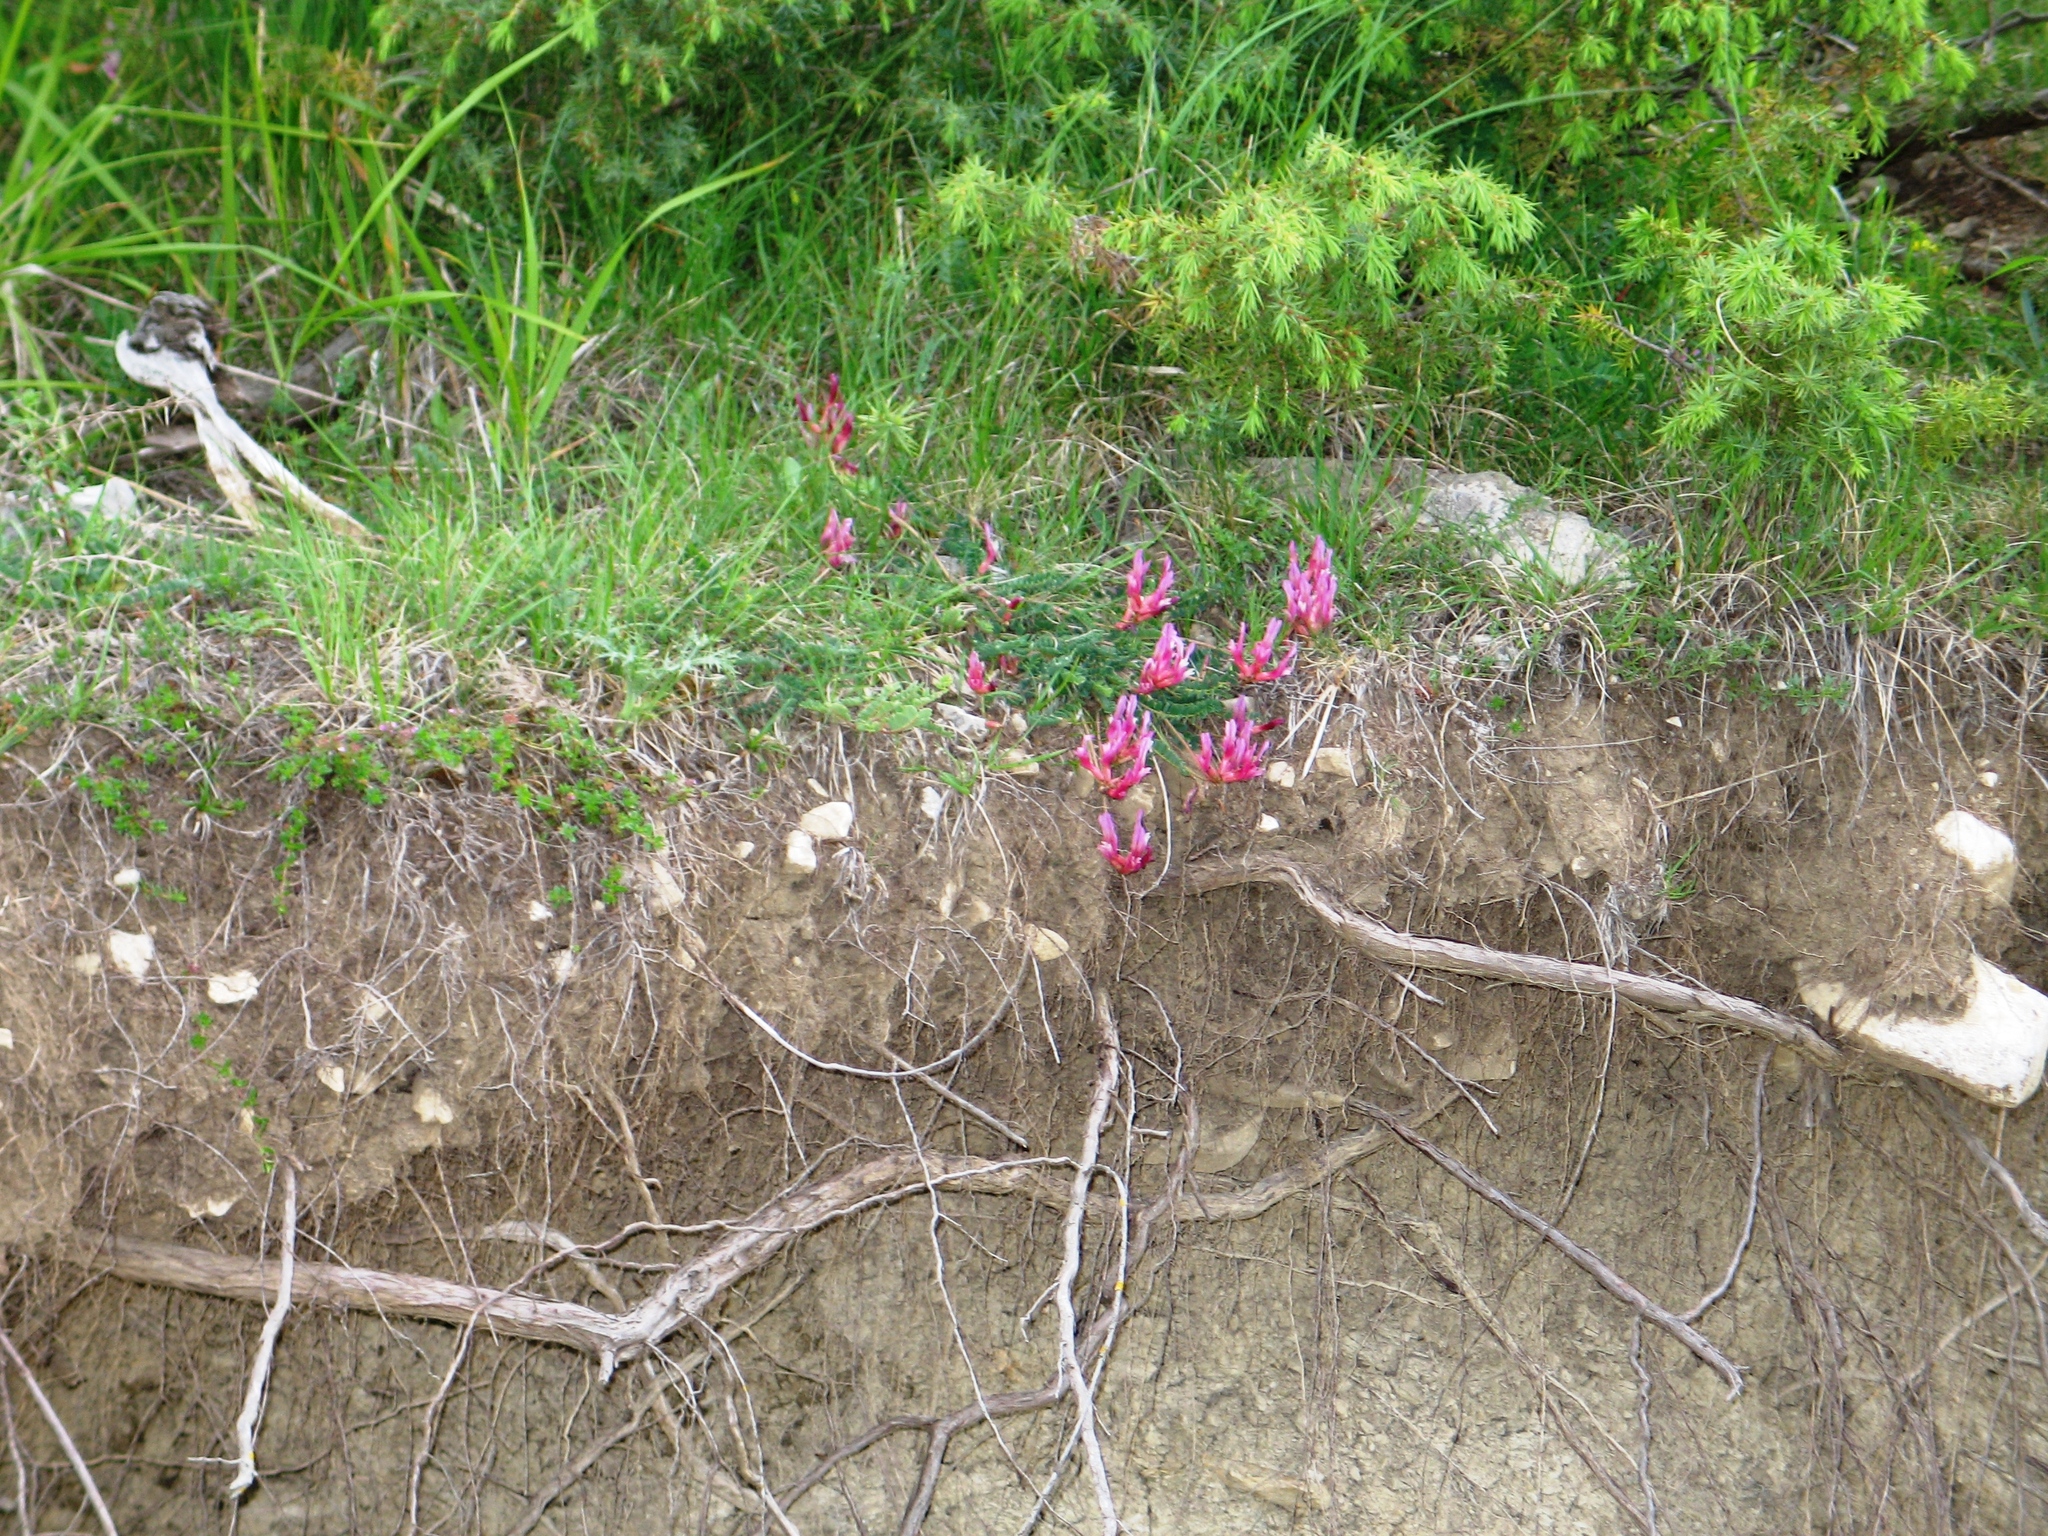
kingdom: Plantae
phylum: Tracheophyta
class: Magnoliopsida
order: Fabales
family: Fabaceae
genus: Astragalus
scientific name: Astragalus monspessulanus
